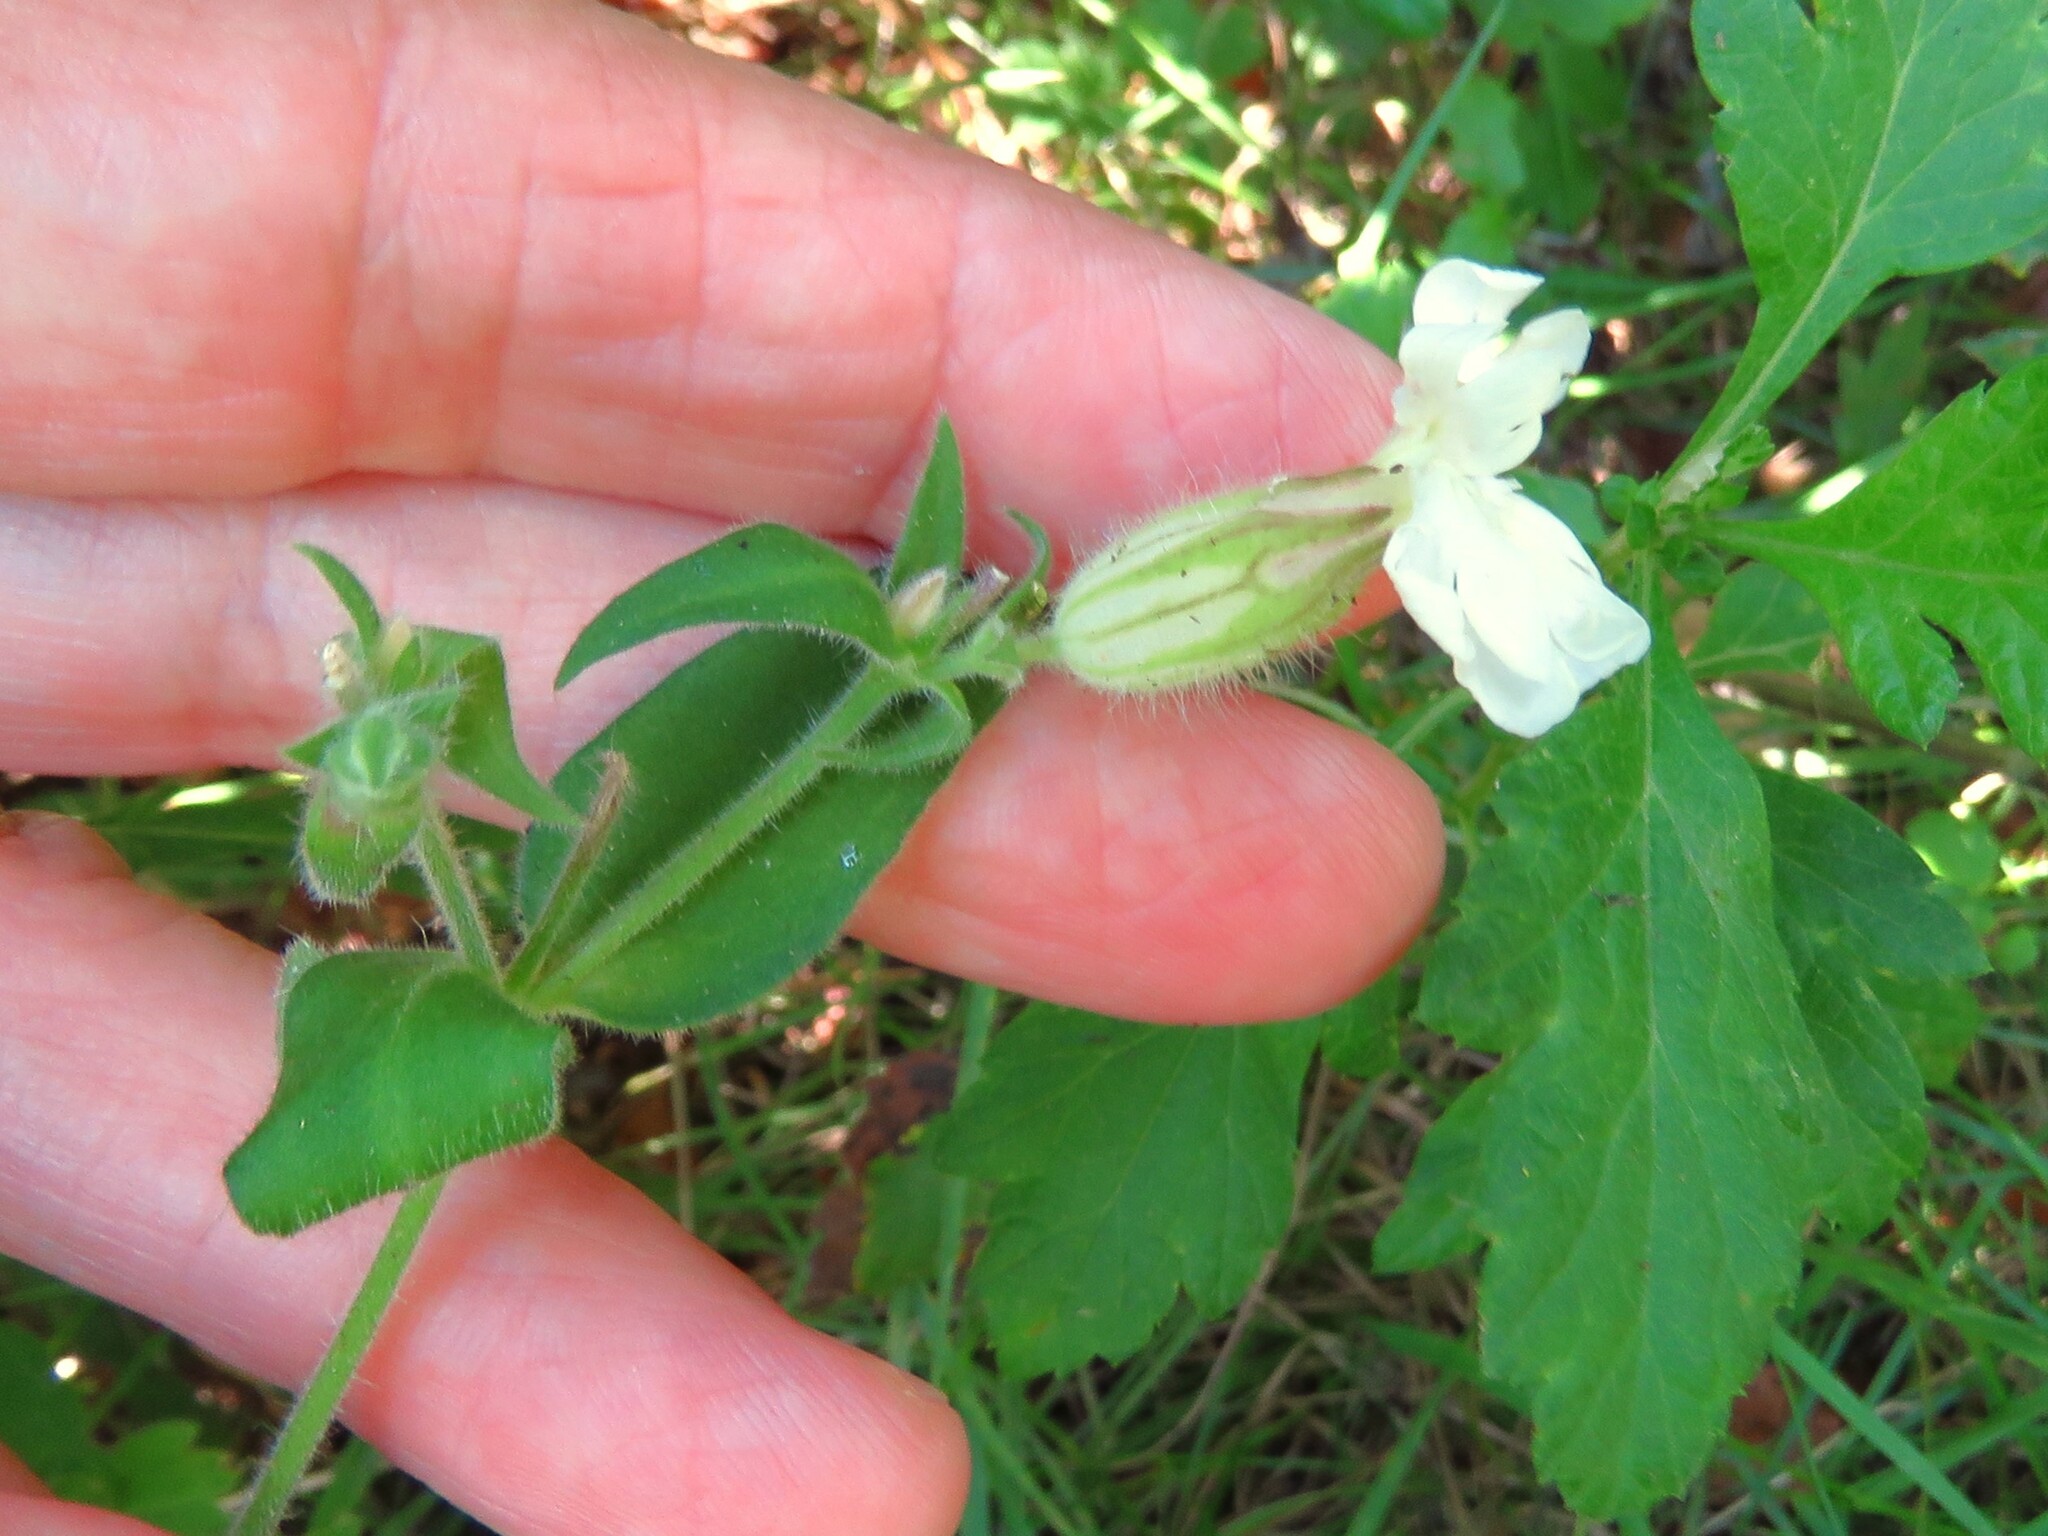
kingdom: Plantae
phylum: Tracheophyta
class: Magnoliopsida
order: Caryophyllales
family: Caryophyllaceae
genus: Silene
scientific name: Silene latifolia
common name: White campion
